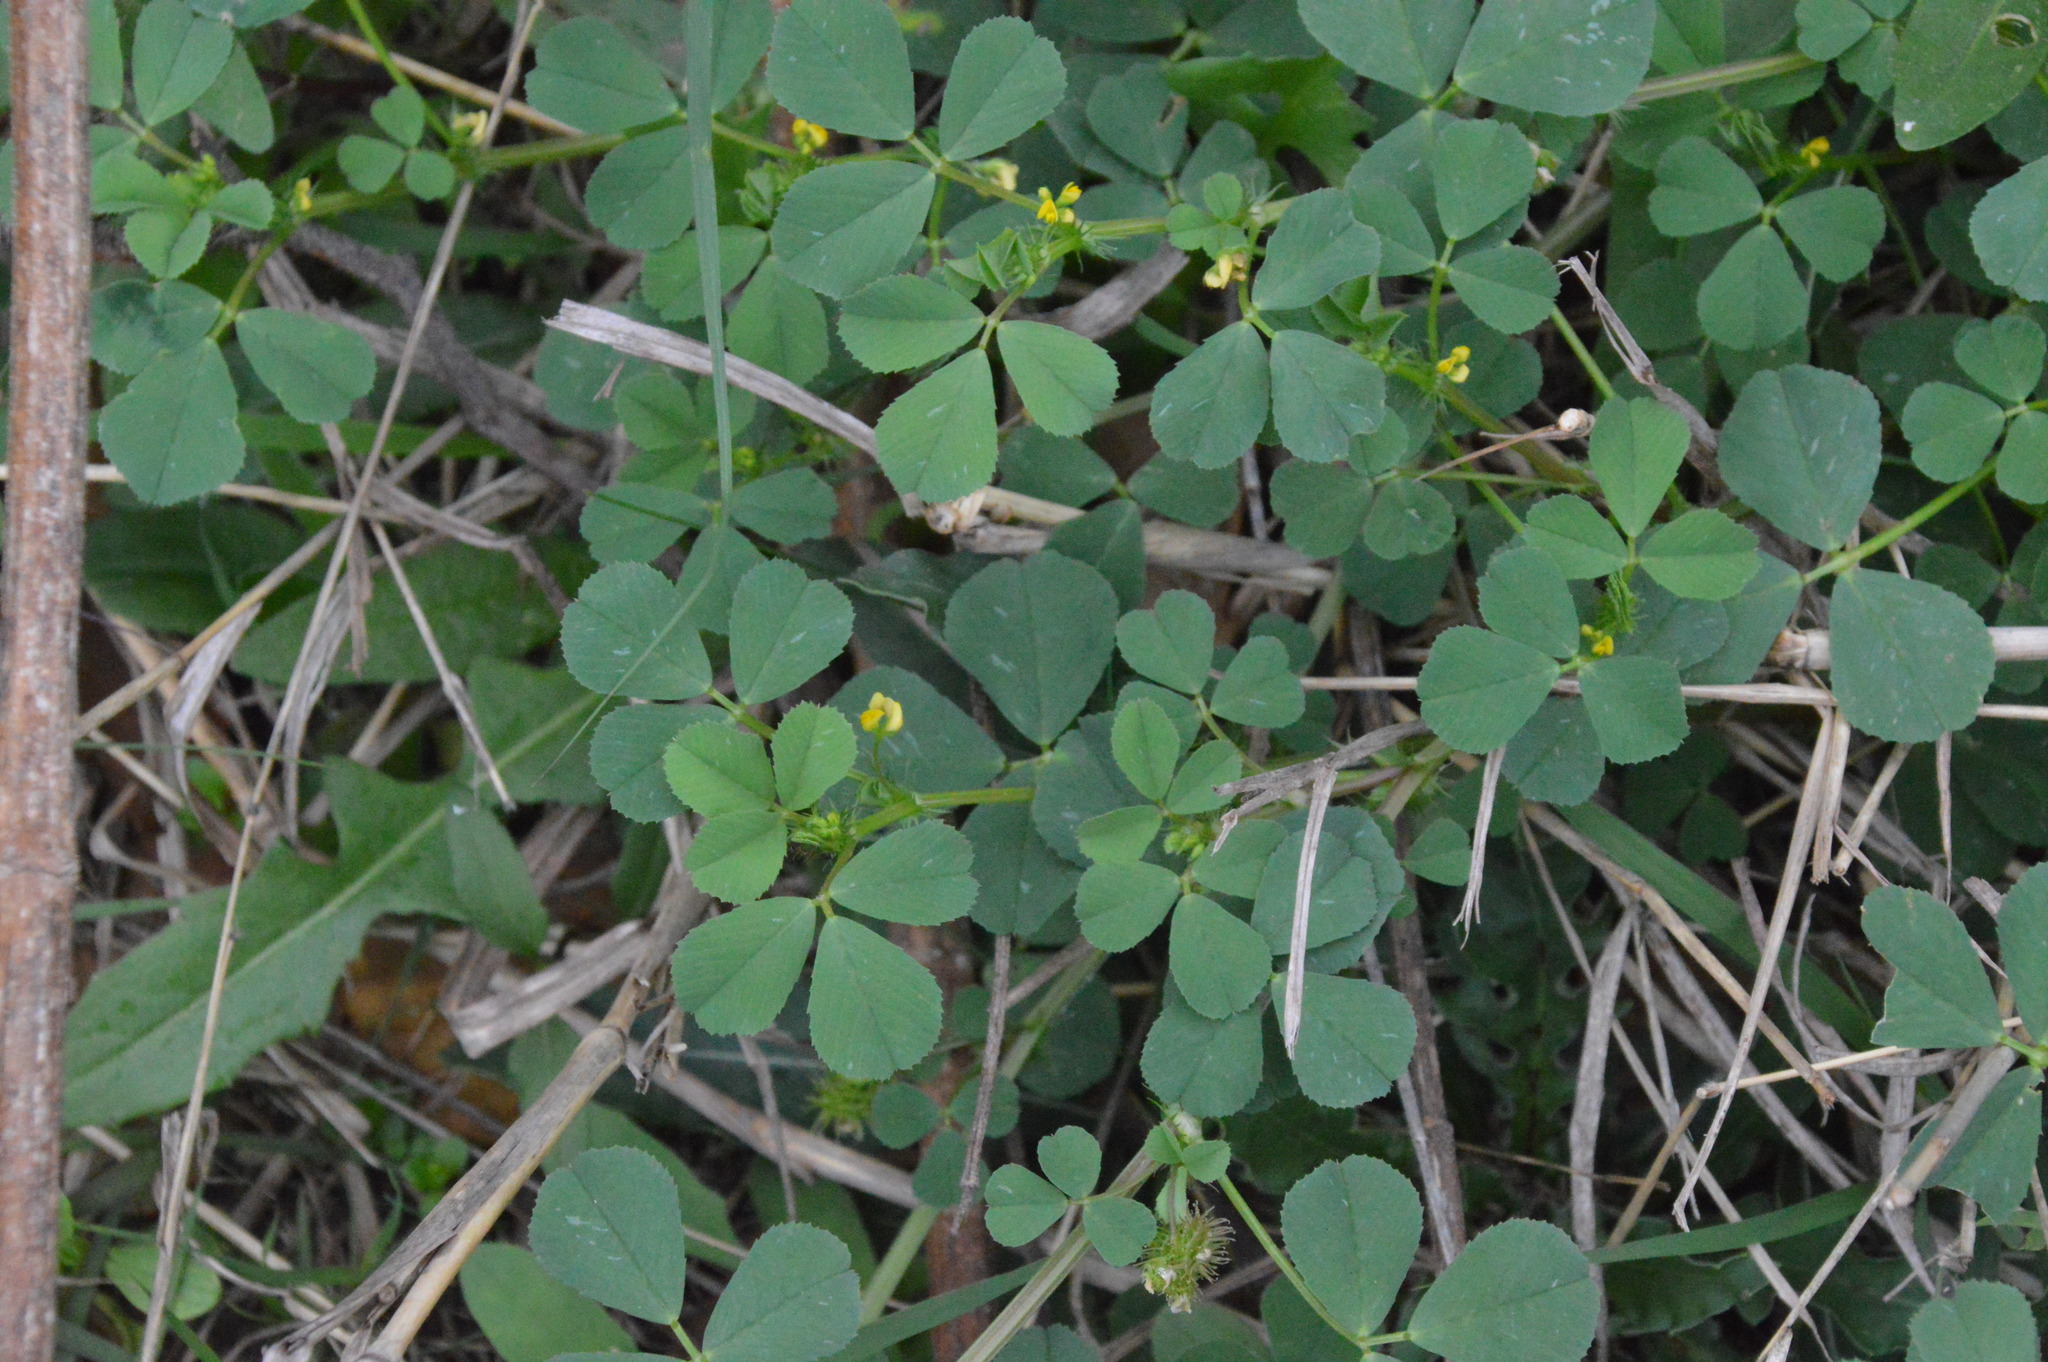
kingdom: Plantae
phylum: Tracheophyta
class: Magnoliopsida
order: Fabales
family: Fabaceae
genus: Medicago
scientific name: Medicago polymorpha
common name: Burclover
